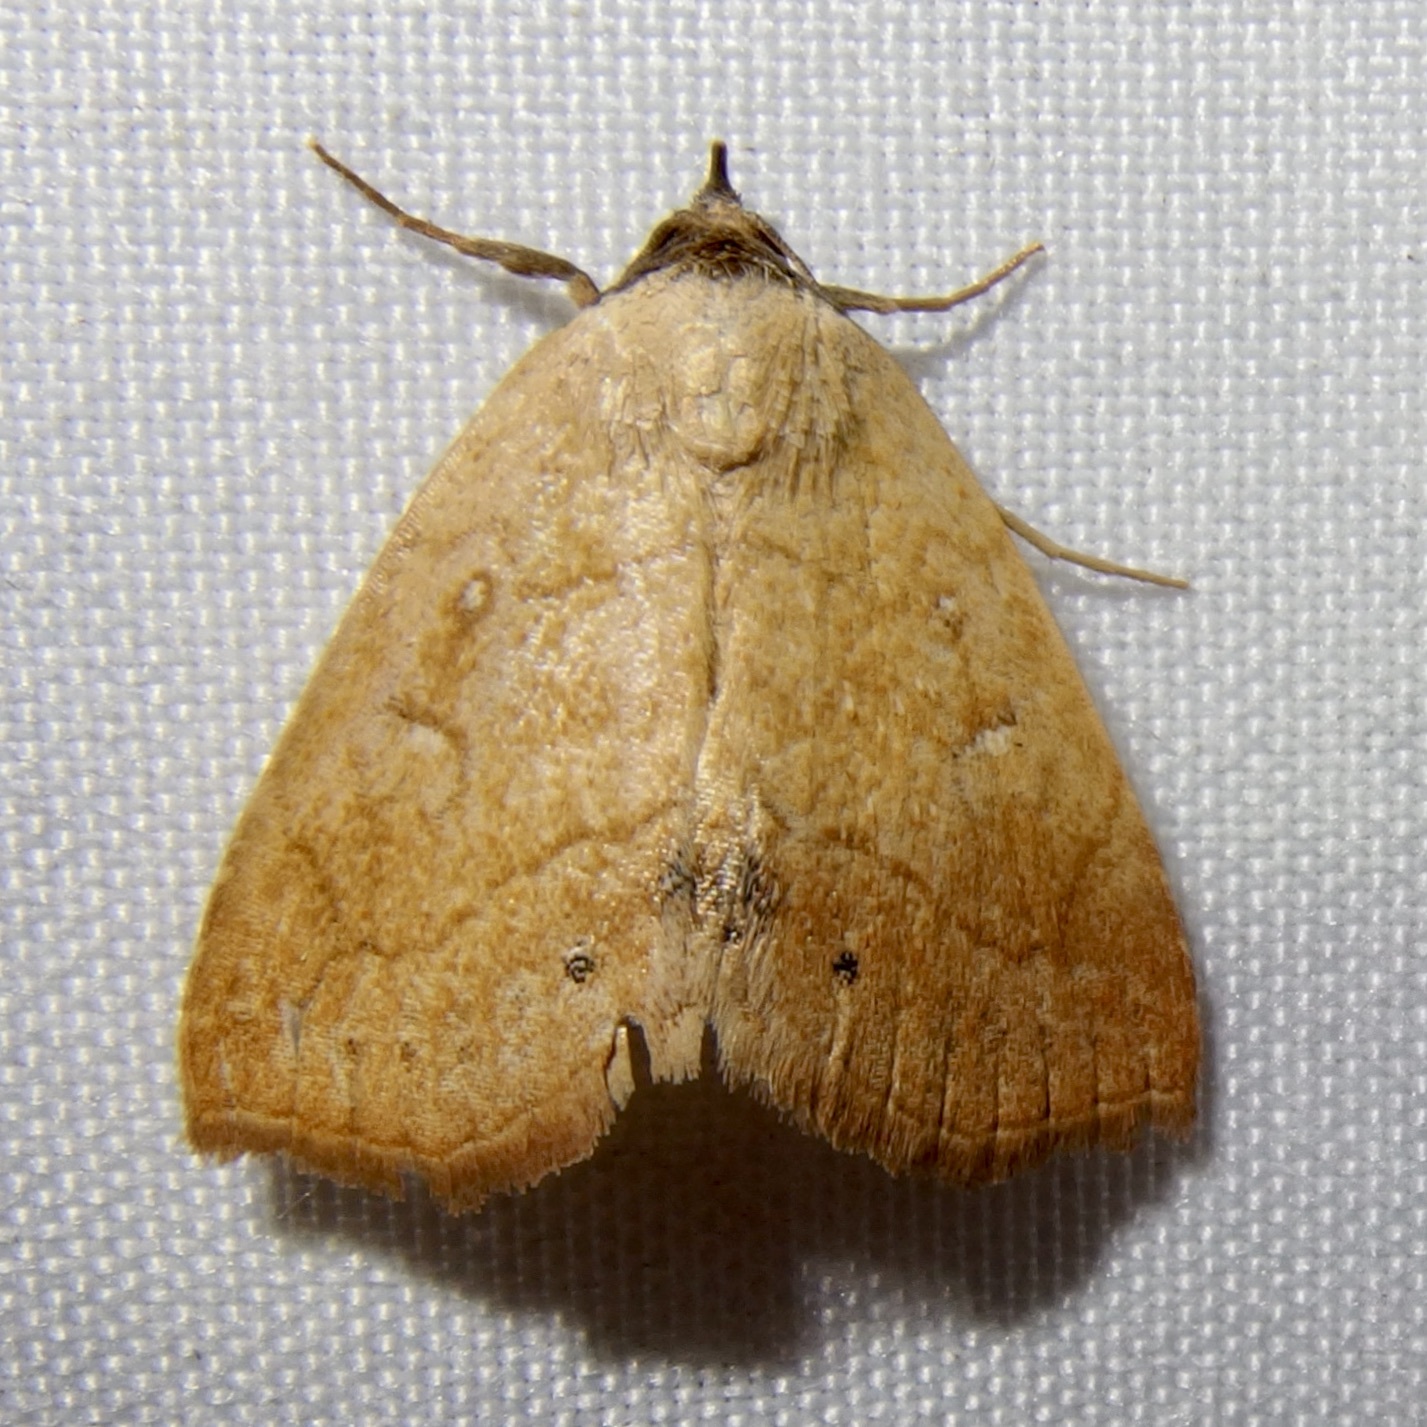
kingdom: Animalia
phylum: Arthropoda
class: Insecta
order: Lepidoptera
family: Erebidae
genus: Isogona
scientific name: Isogona punctipennis
